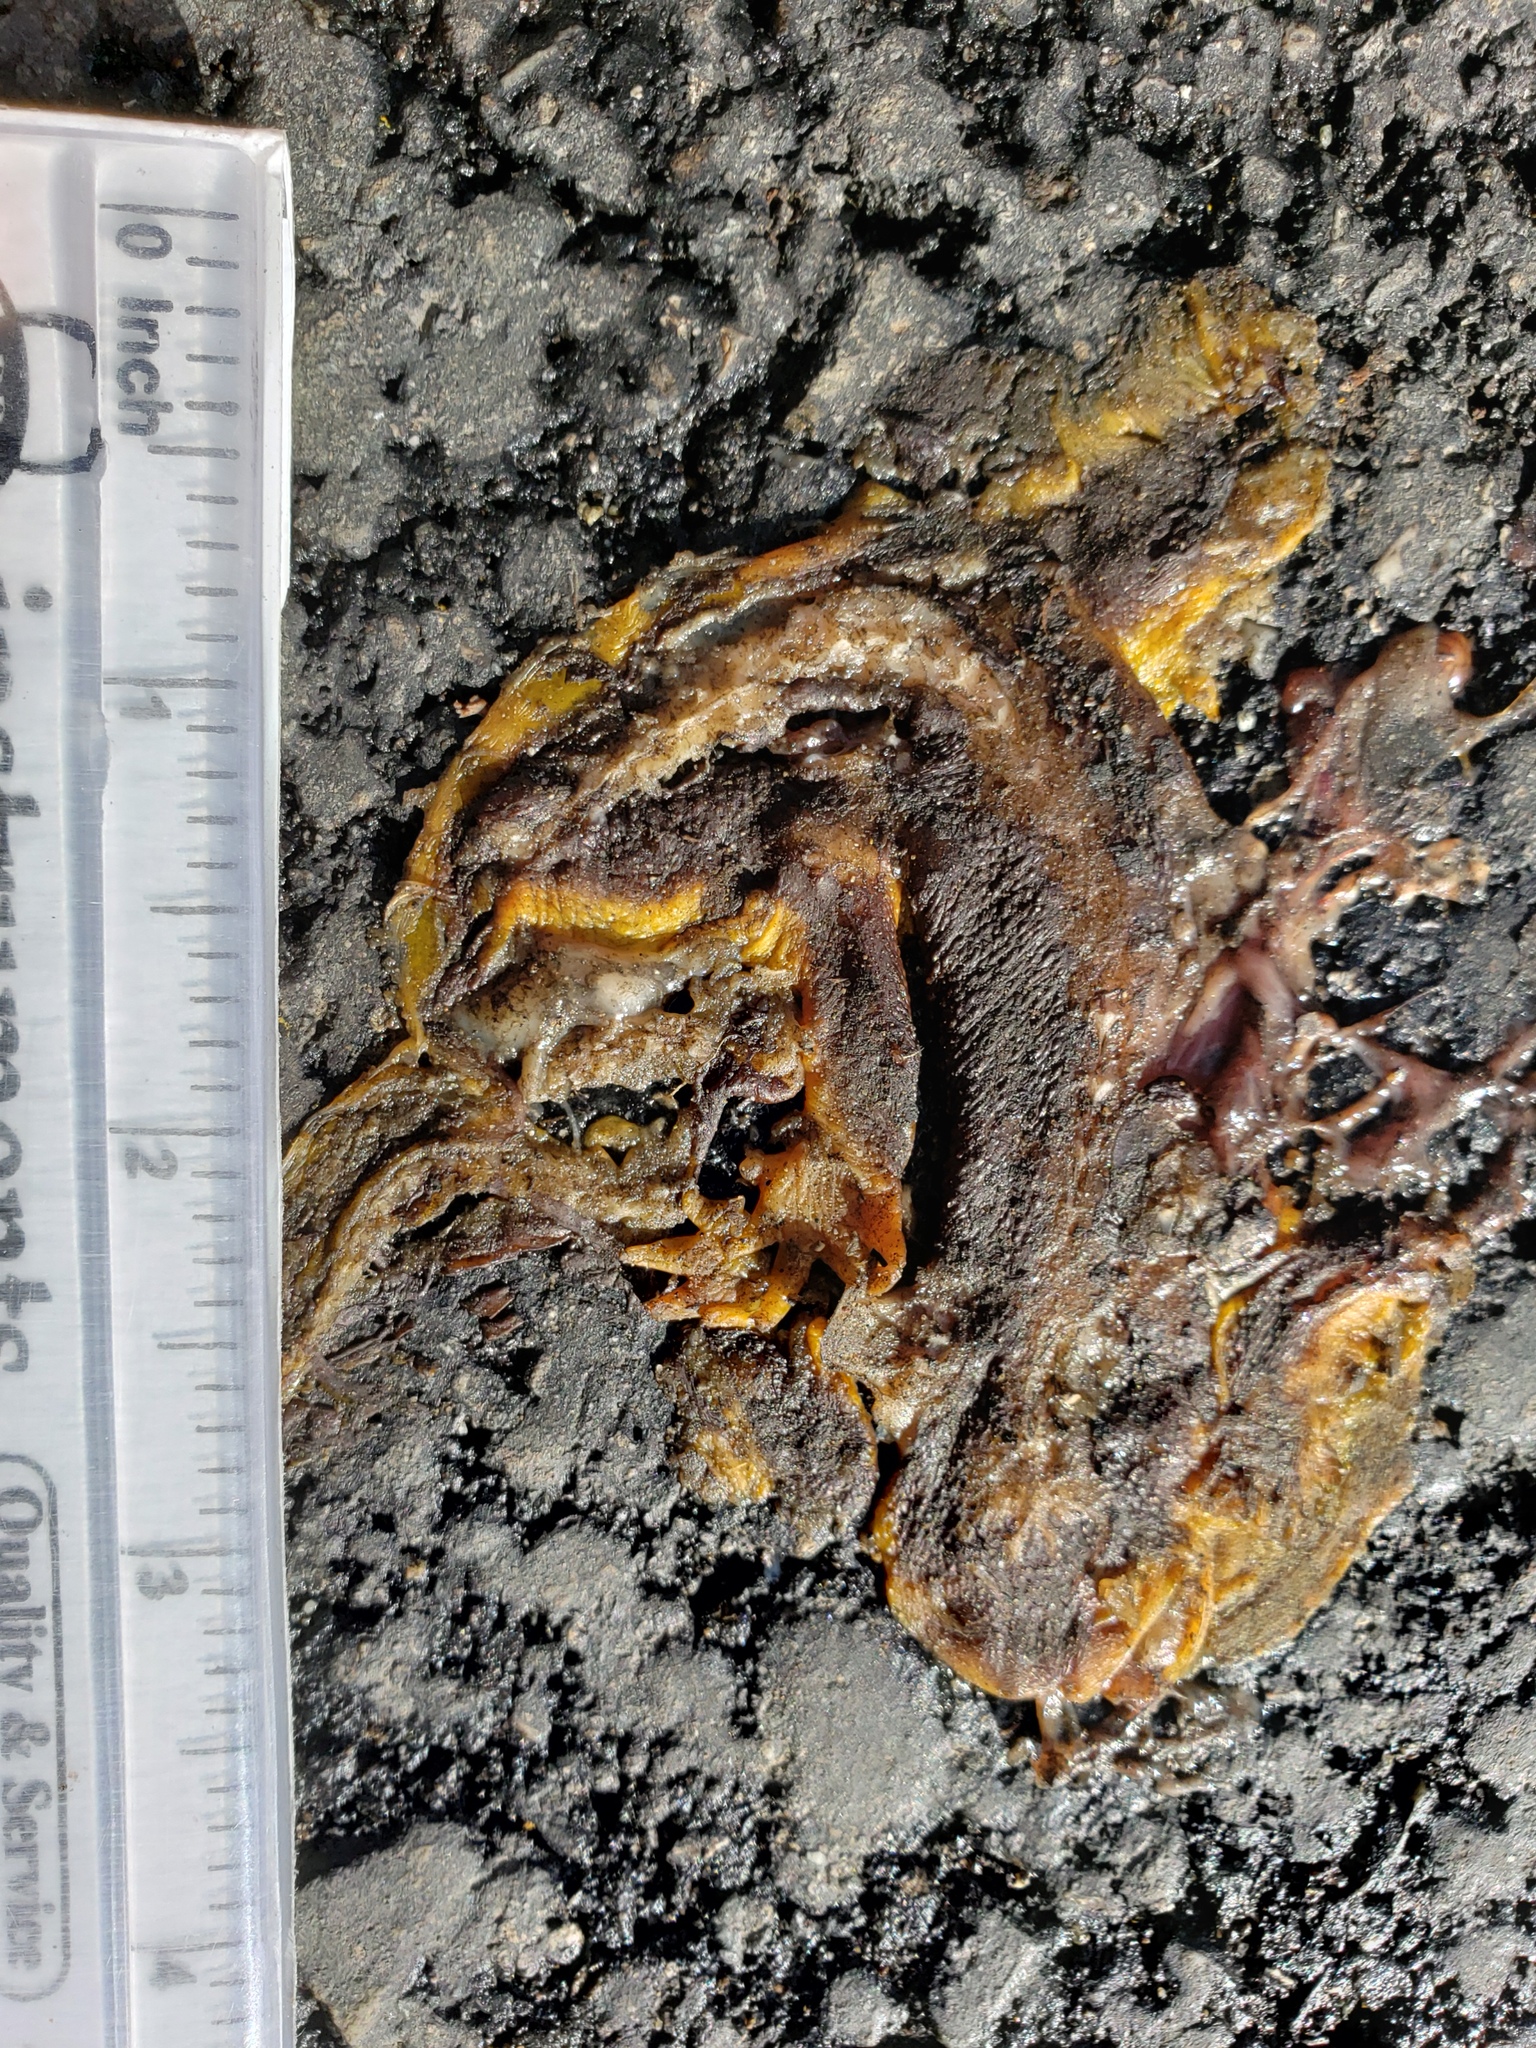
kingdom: Animalia
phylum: Chordata
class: Amphibia
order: Caudata
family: Salamandridae
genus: Taricha
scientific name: Taricha
